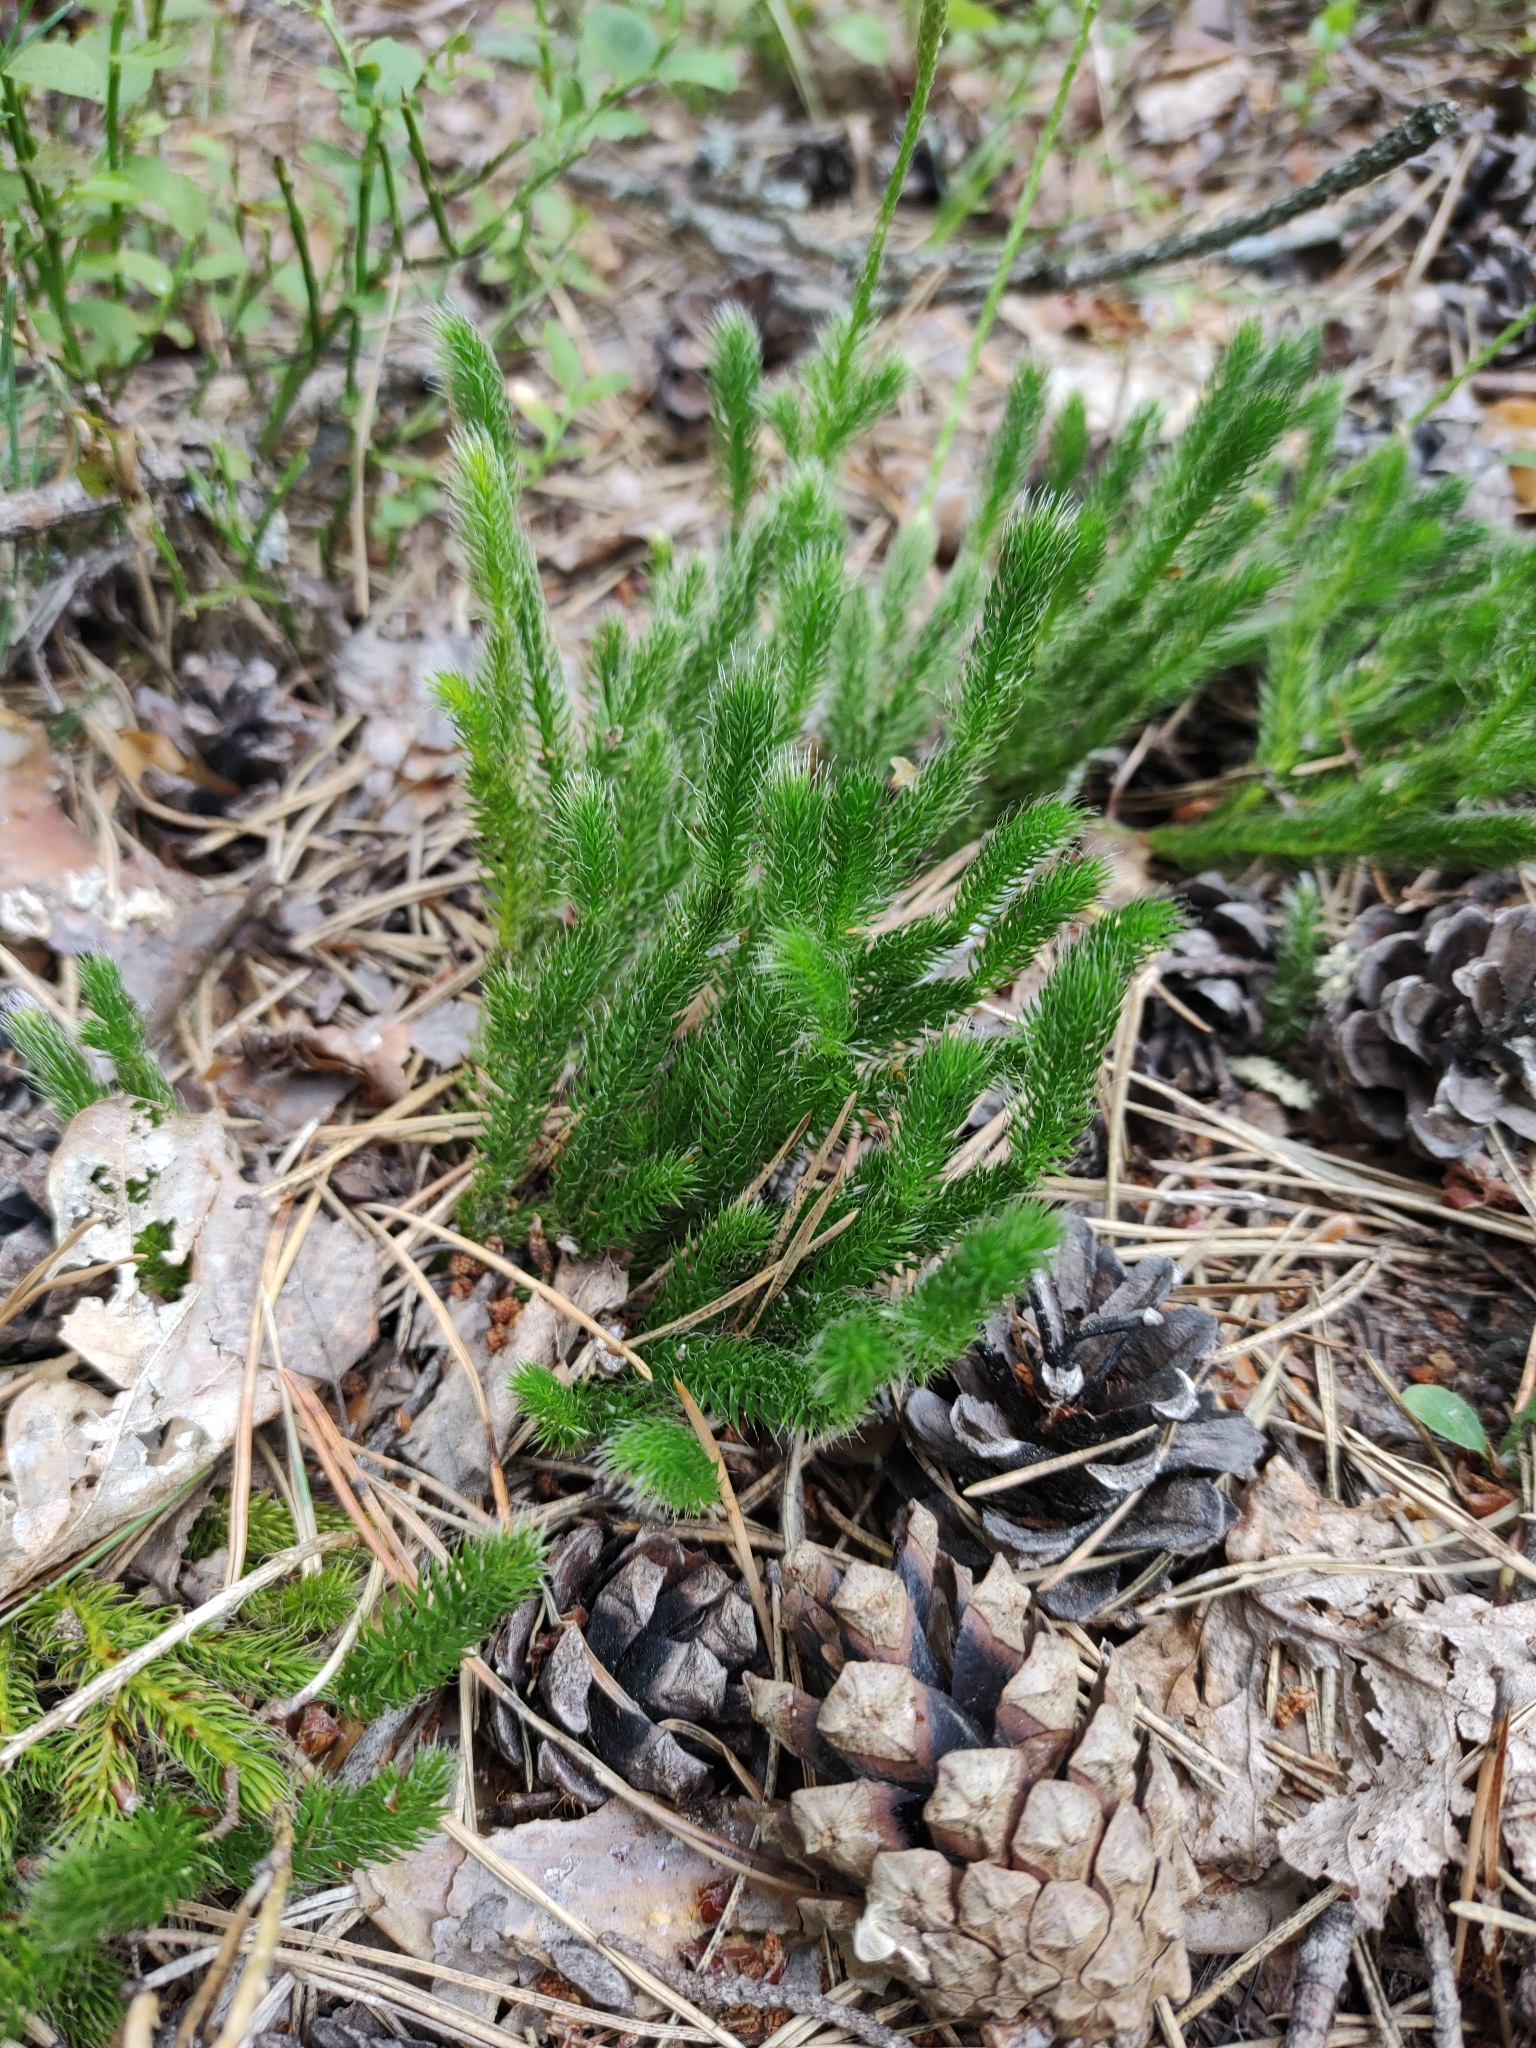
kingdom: Plantae
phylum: Tracheophyta
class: Lycopodiopsida
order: Lycopodiales
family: Lycopodiaceae
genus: Lycopodium
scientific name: Lycopodium clavatum
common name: Stag's-horn clubmoss
